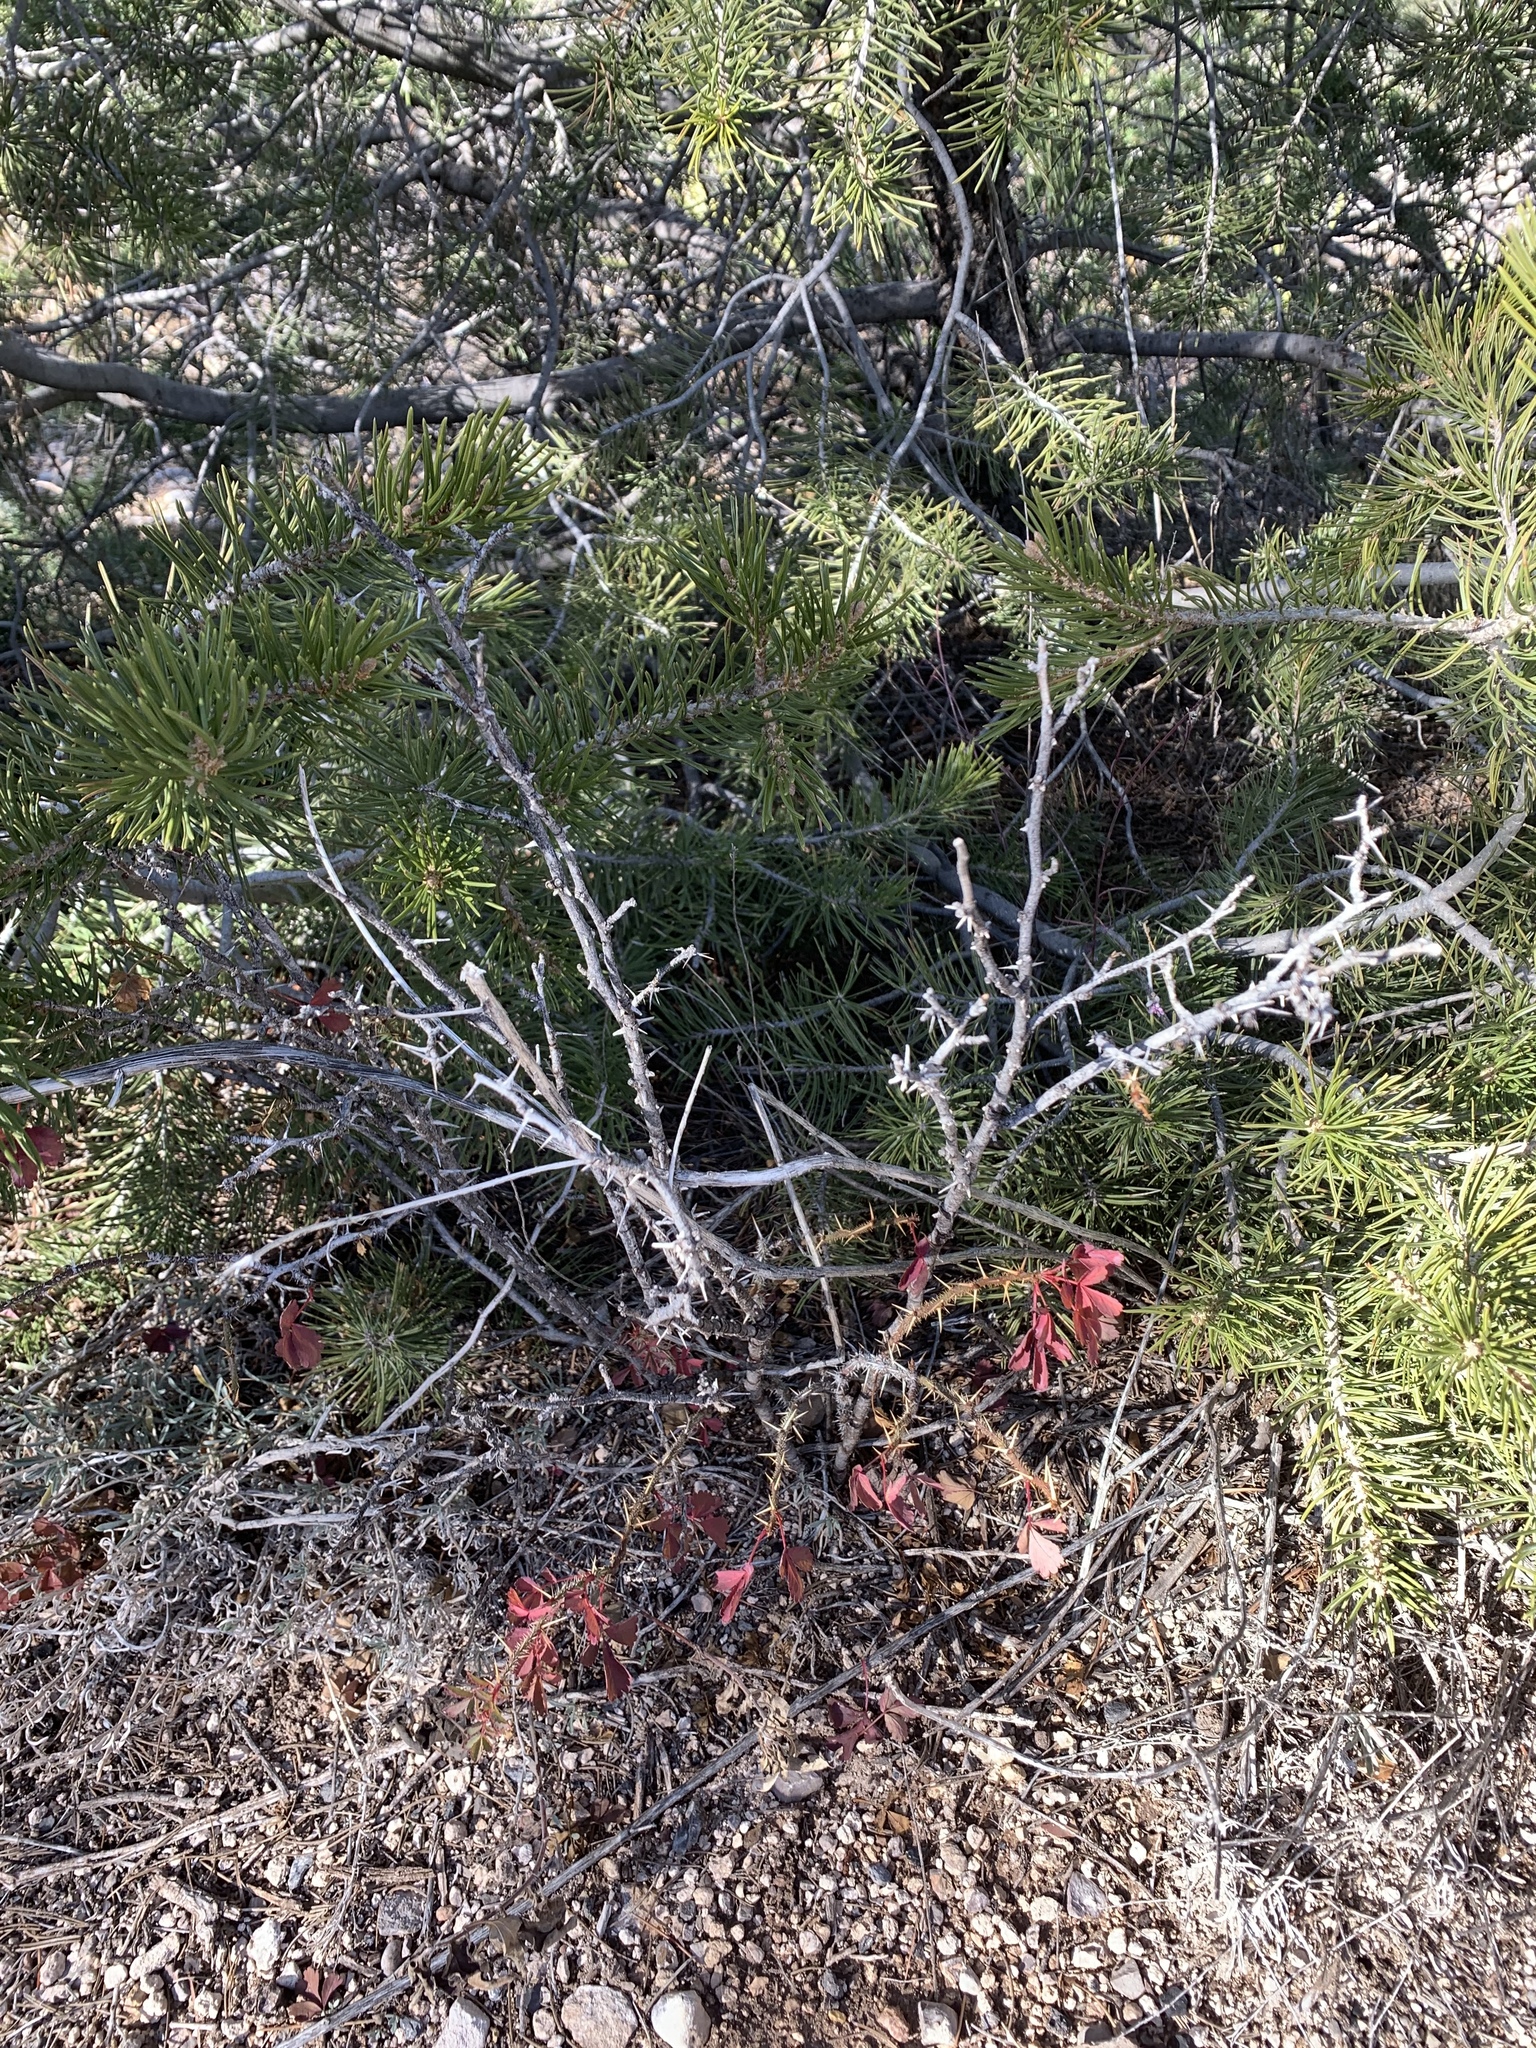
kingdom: Plantae
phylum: Tracheophyta
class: Magnoliopsida
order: Rosales
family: Rosaceae
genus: Rosa
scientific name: Rosa stellata
